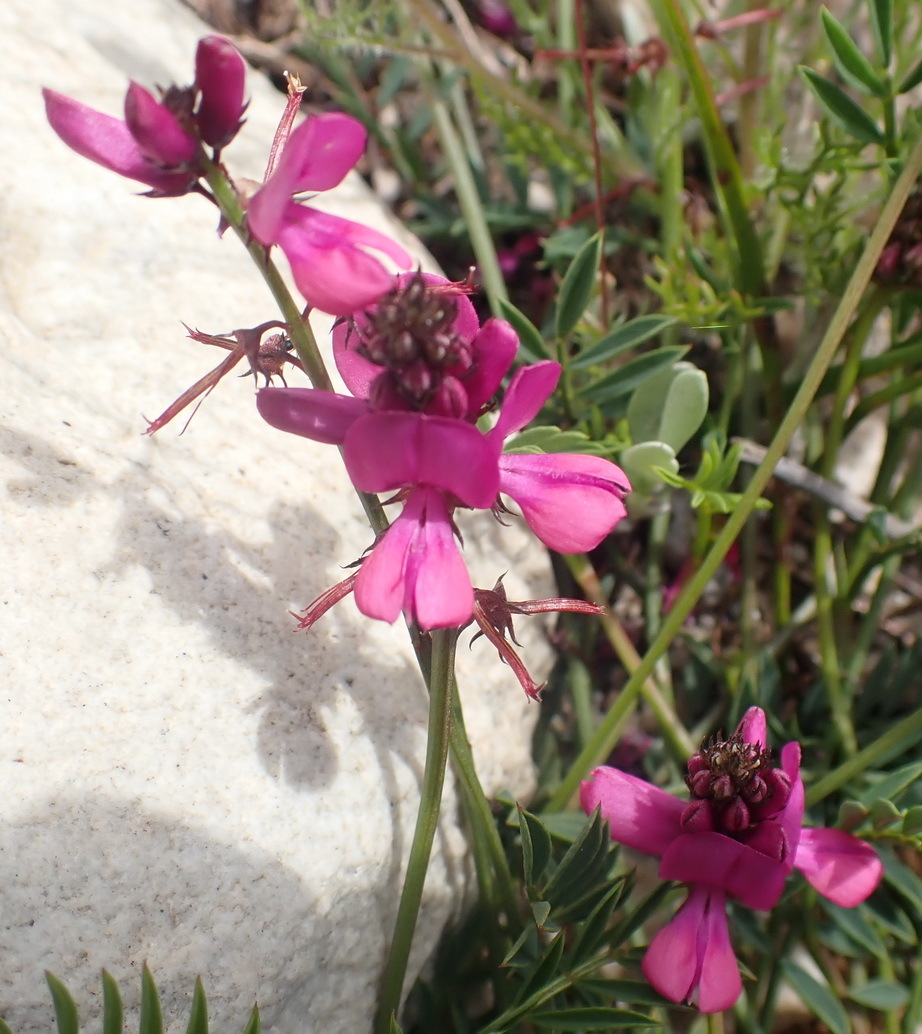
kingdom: Plantae
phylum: Tracheophyta
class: Magnoliopsida
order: Fabales
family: Fabaceae
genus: Indigofera
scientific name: Indigofera capillaris
